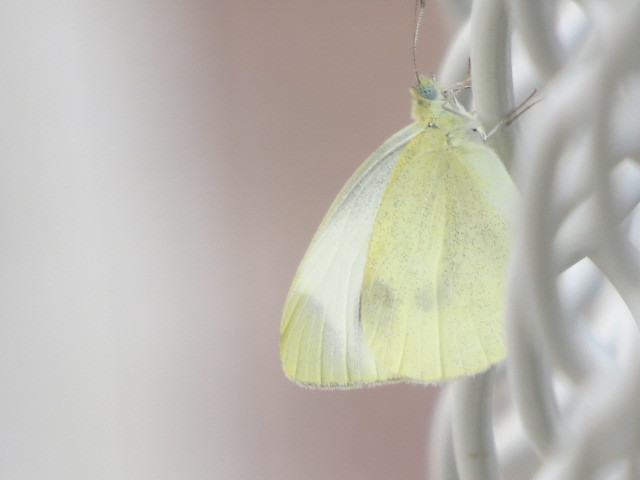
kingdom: Animalia
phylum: Arthropoda
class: Insecta
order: Lepidoptera
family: Pieridae
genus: Pieris
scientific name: Pieris mannii
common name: Southern small white
